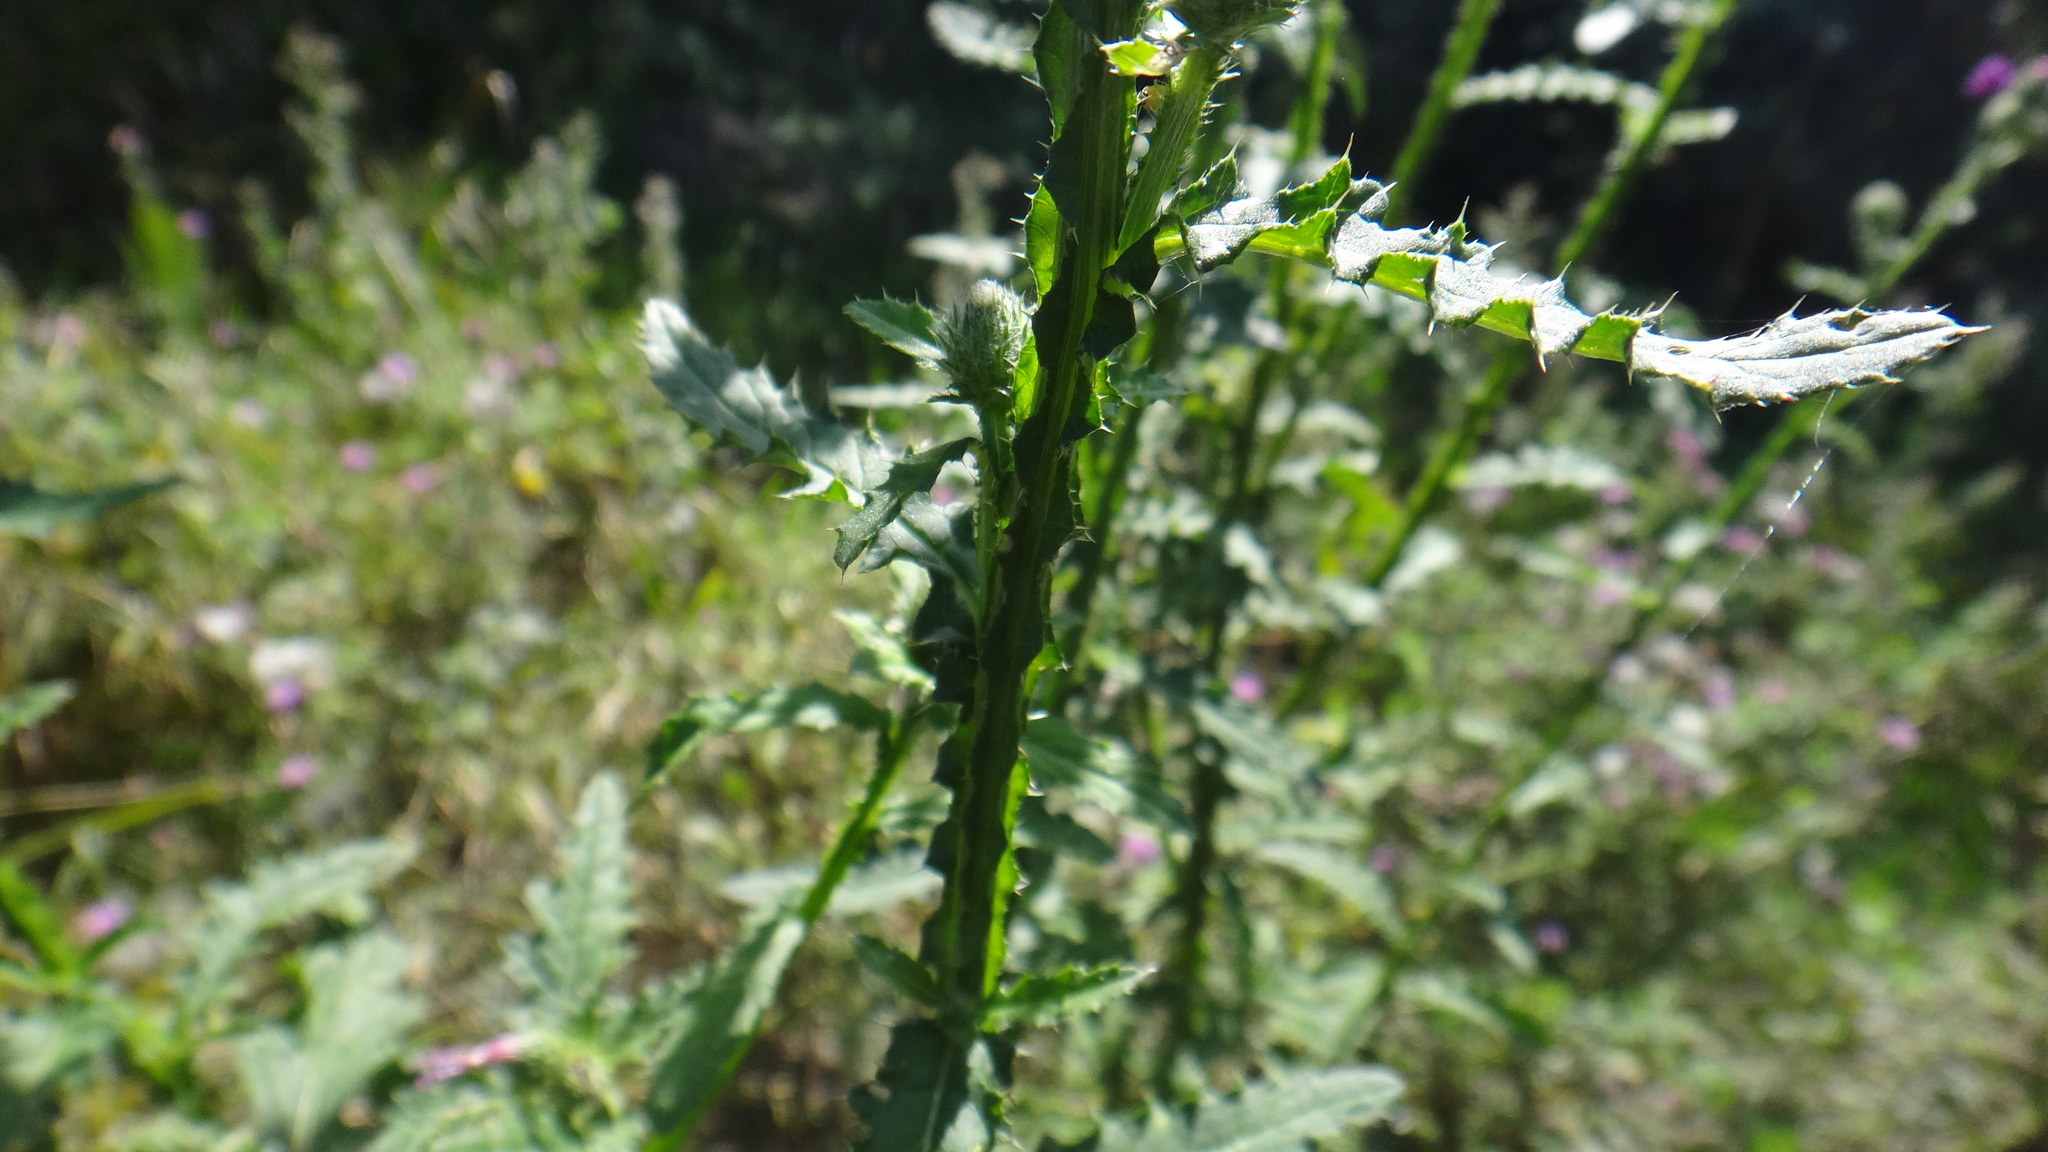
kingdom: Plantae
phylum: Tracheophyta
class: Magnoliopsida
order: Asterales
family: Asteraceae
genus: Carduus
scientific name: Carduus crispus
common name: Welted thistle
